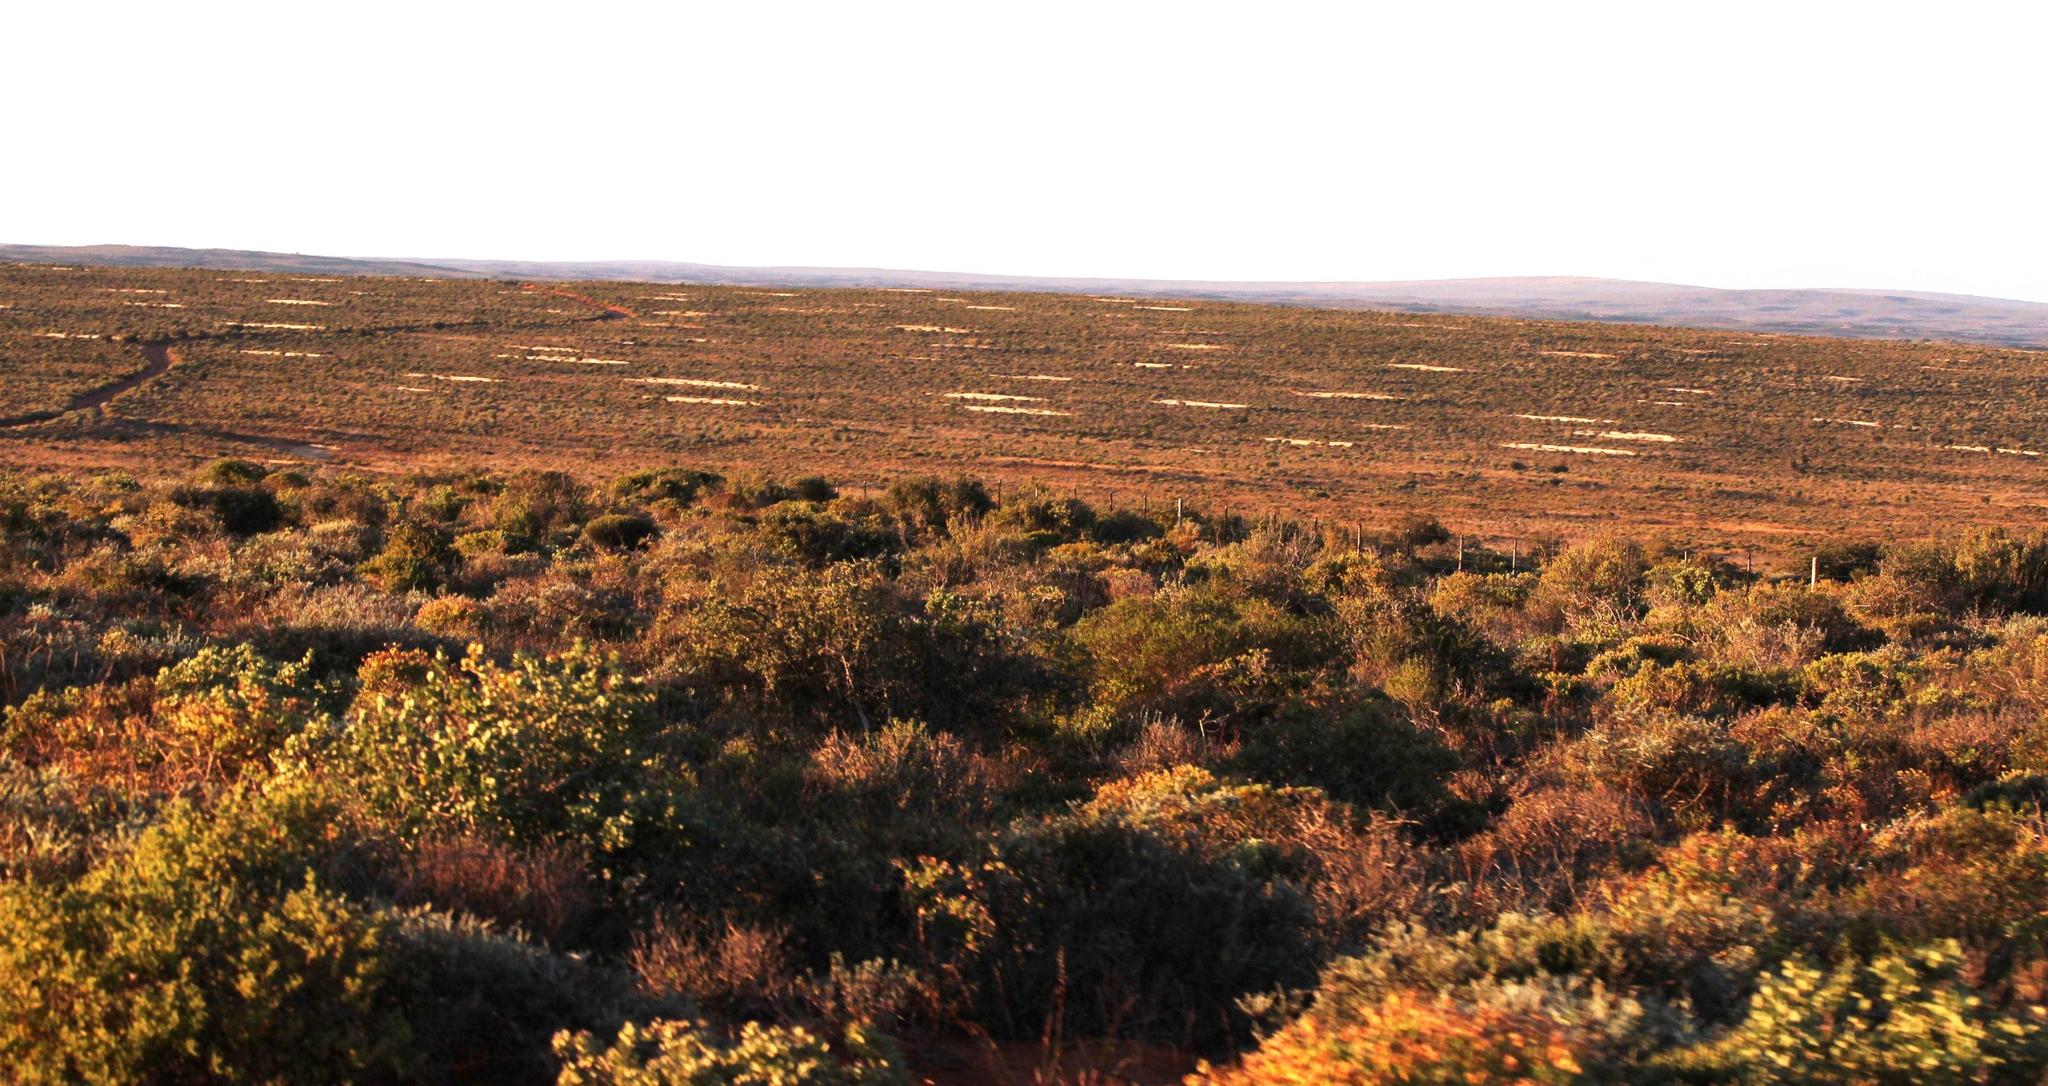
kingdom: Animalia
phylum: Arthropoda
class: Insecta
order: Blattodea
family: Hodotermitidae
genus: Microhodotermes
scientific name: Microhodotermes viator
